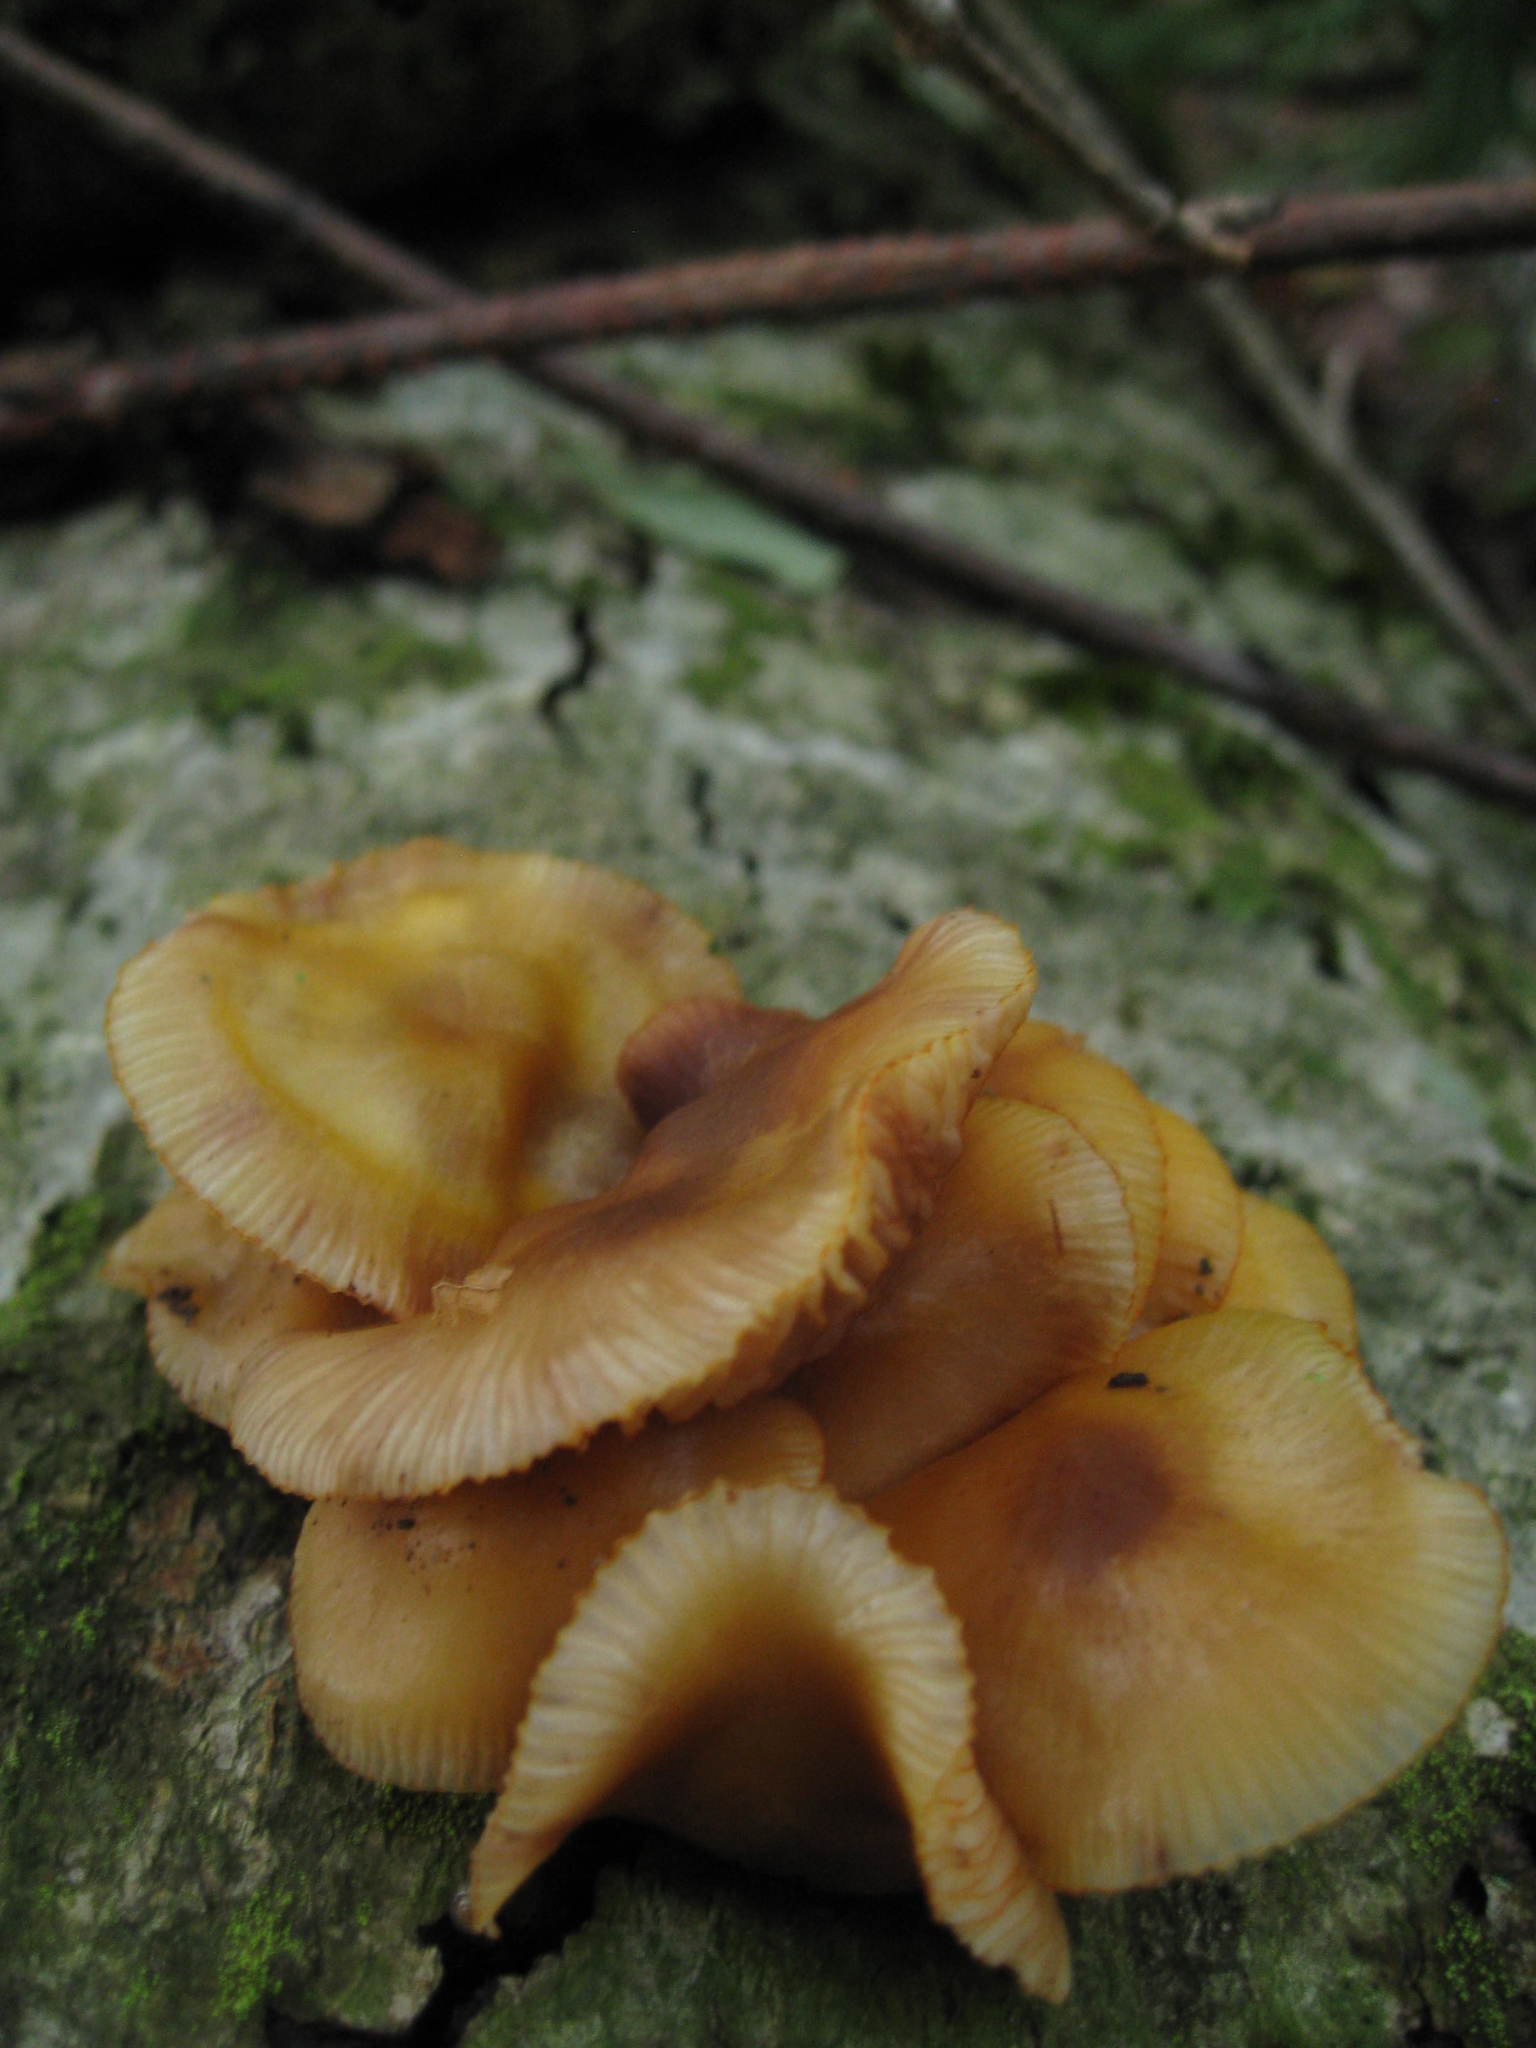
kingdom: Fungi
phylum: Basidiomycota
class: Agaricomycetes
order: Agaricales
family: Mycenaceae
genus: Mycena
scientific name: Mycena leaiana
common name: Orange mycena
